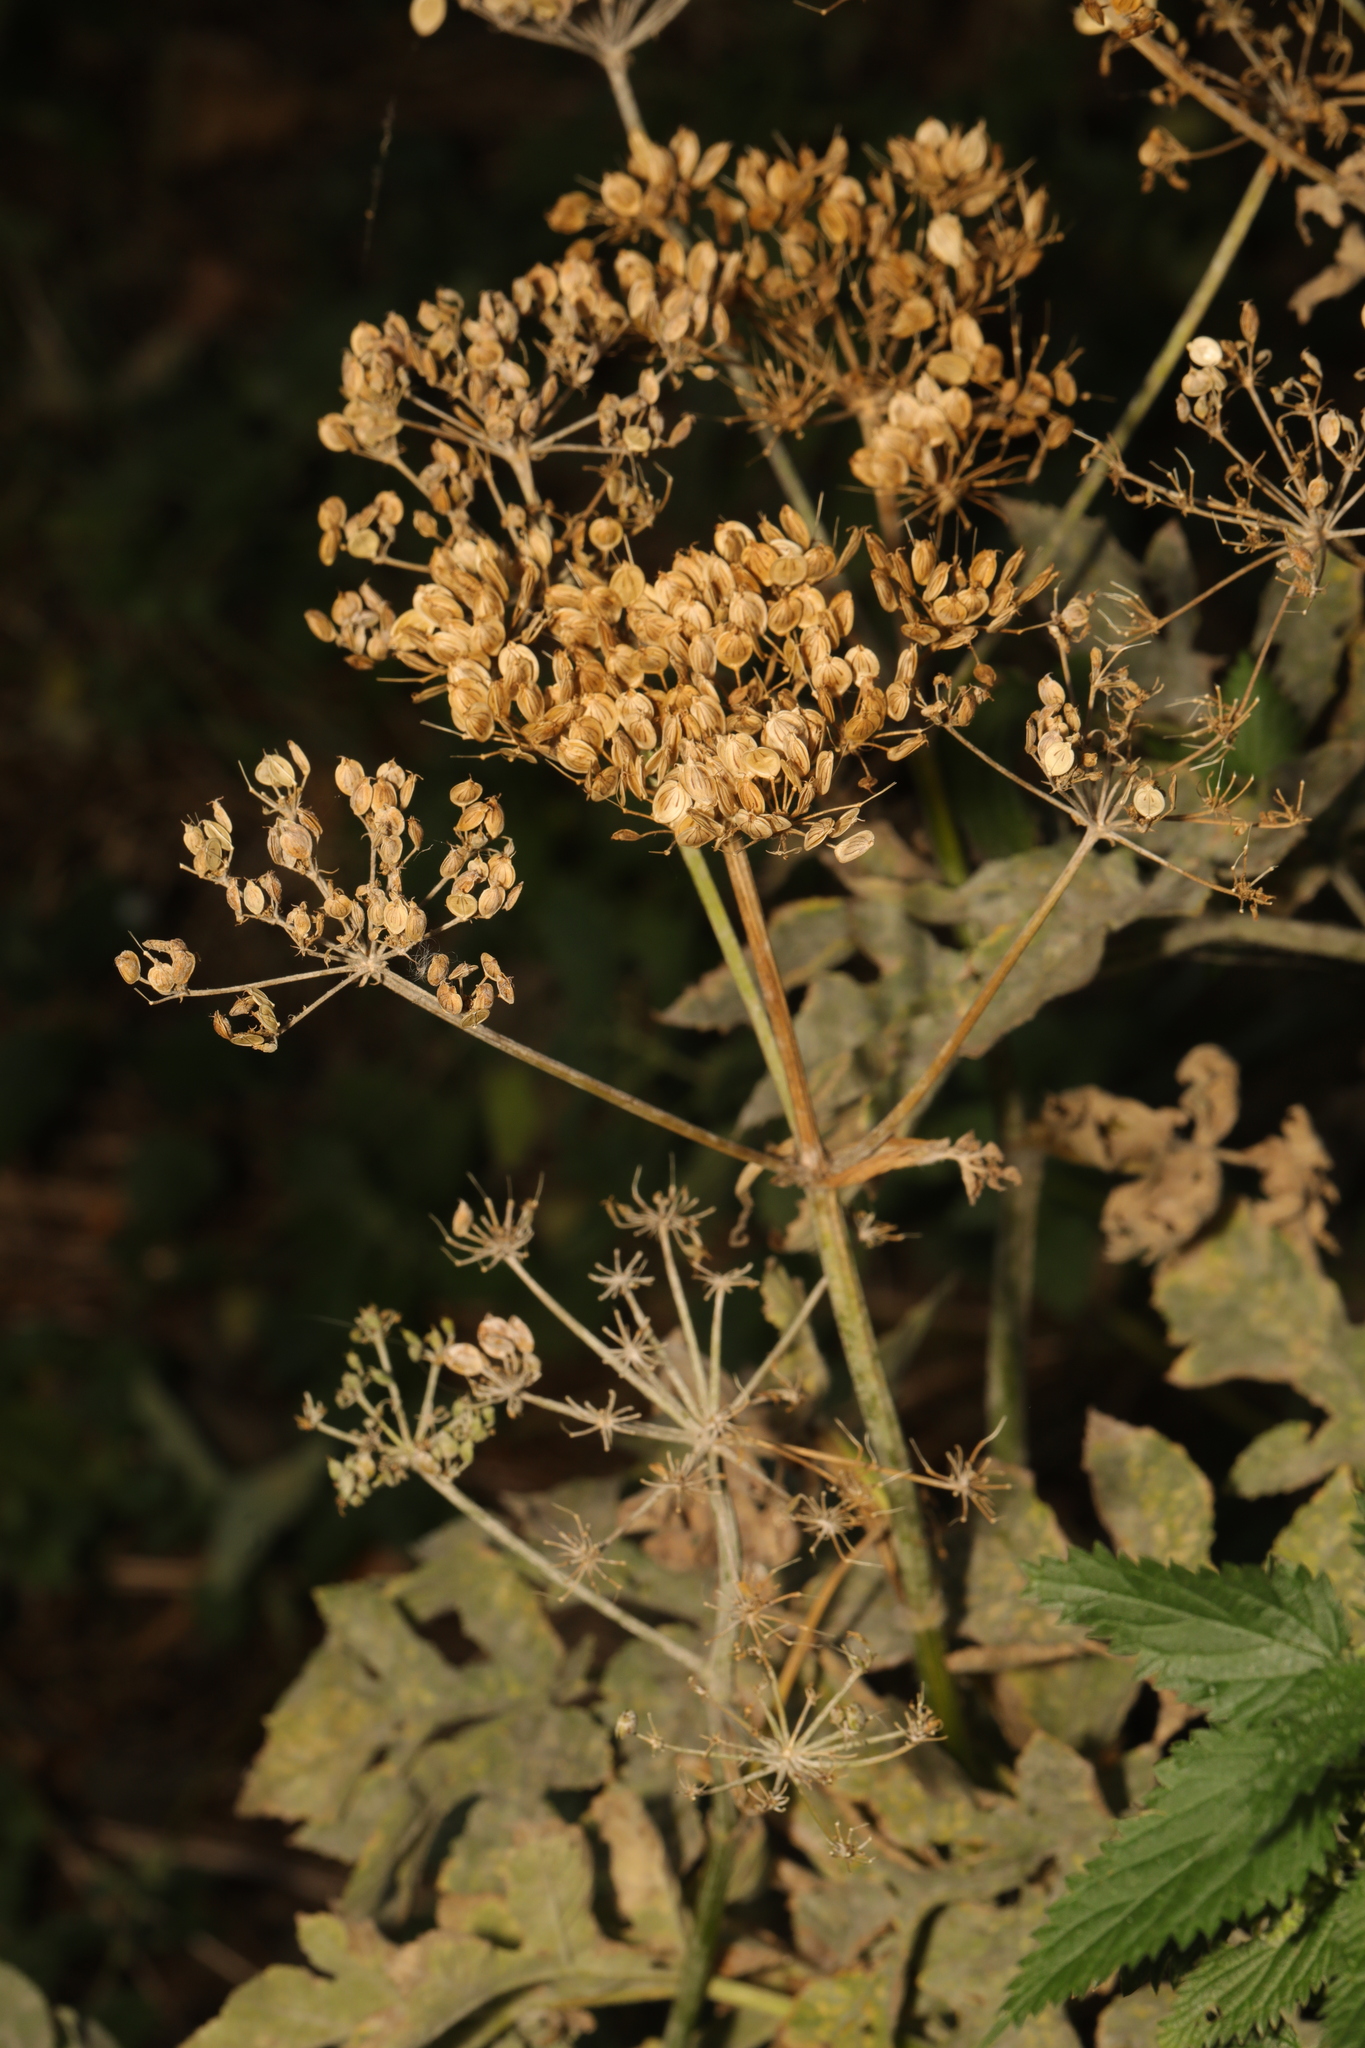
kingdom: Plantae
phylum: Tracheophyta
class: Magnoliopsida
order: Apiales
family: Apiaceae
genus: Heracleum
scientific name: Heracleum sphondylium
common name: Hogweed
